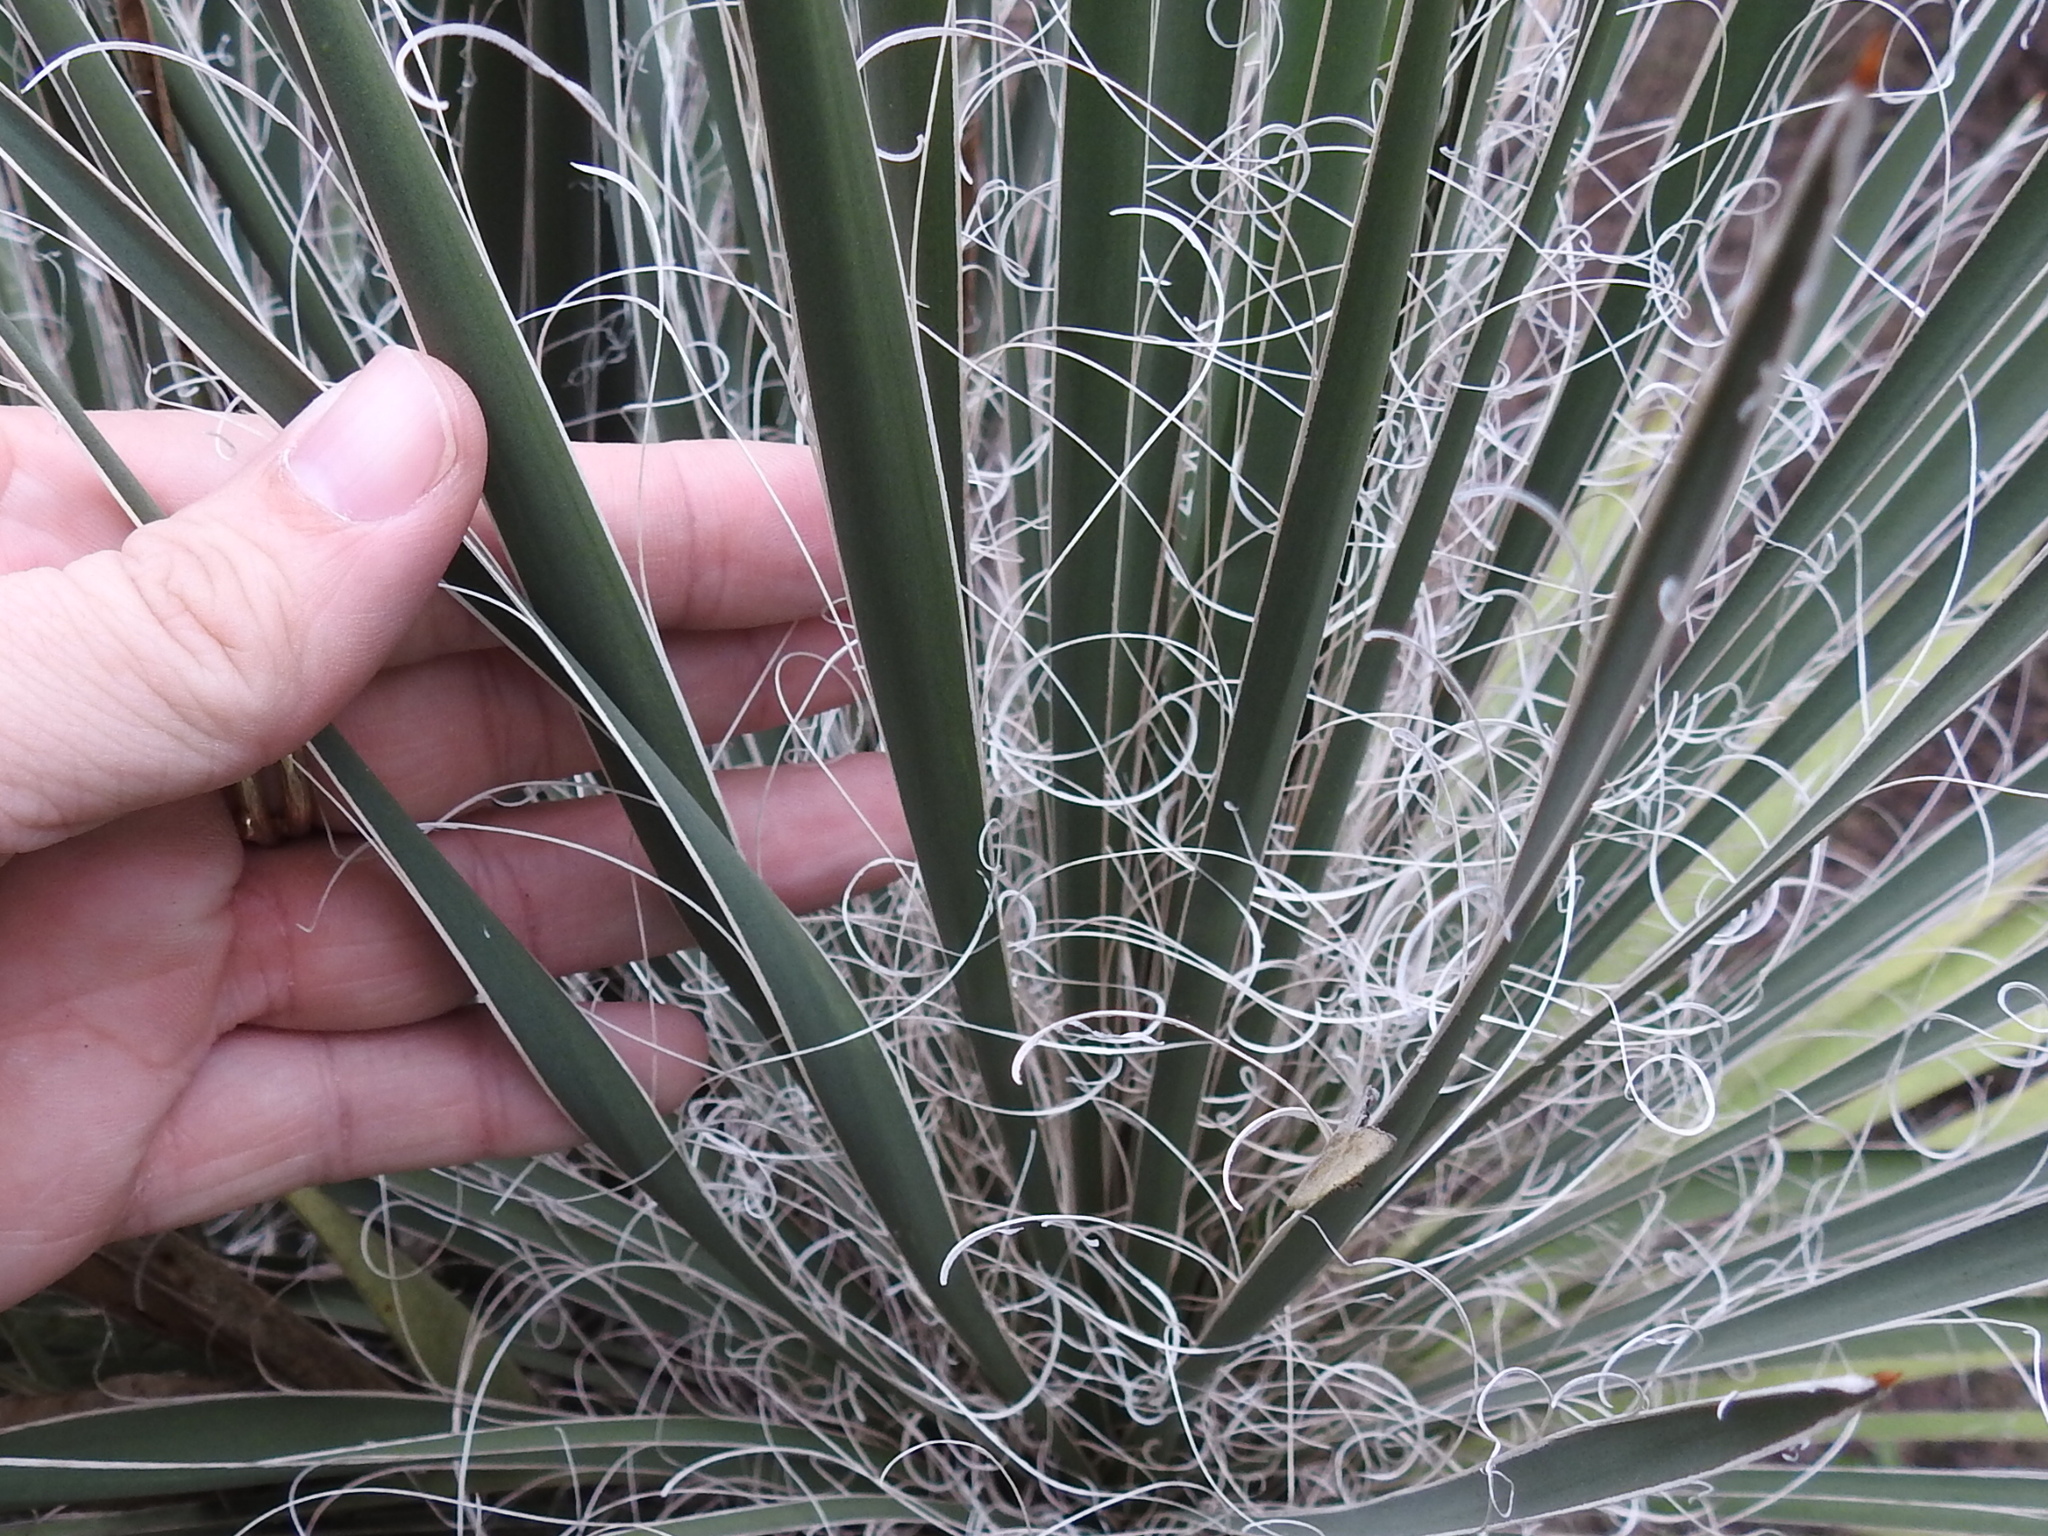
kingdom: Plantae
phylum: Tracheophyta
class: Liliopsida
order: Asparagales
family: Asparagaceae
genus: Yucca
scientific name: Yucca constricta
